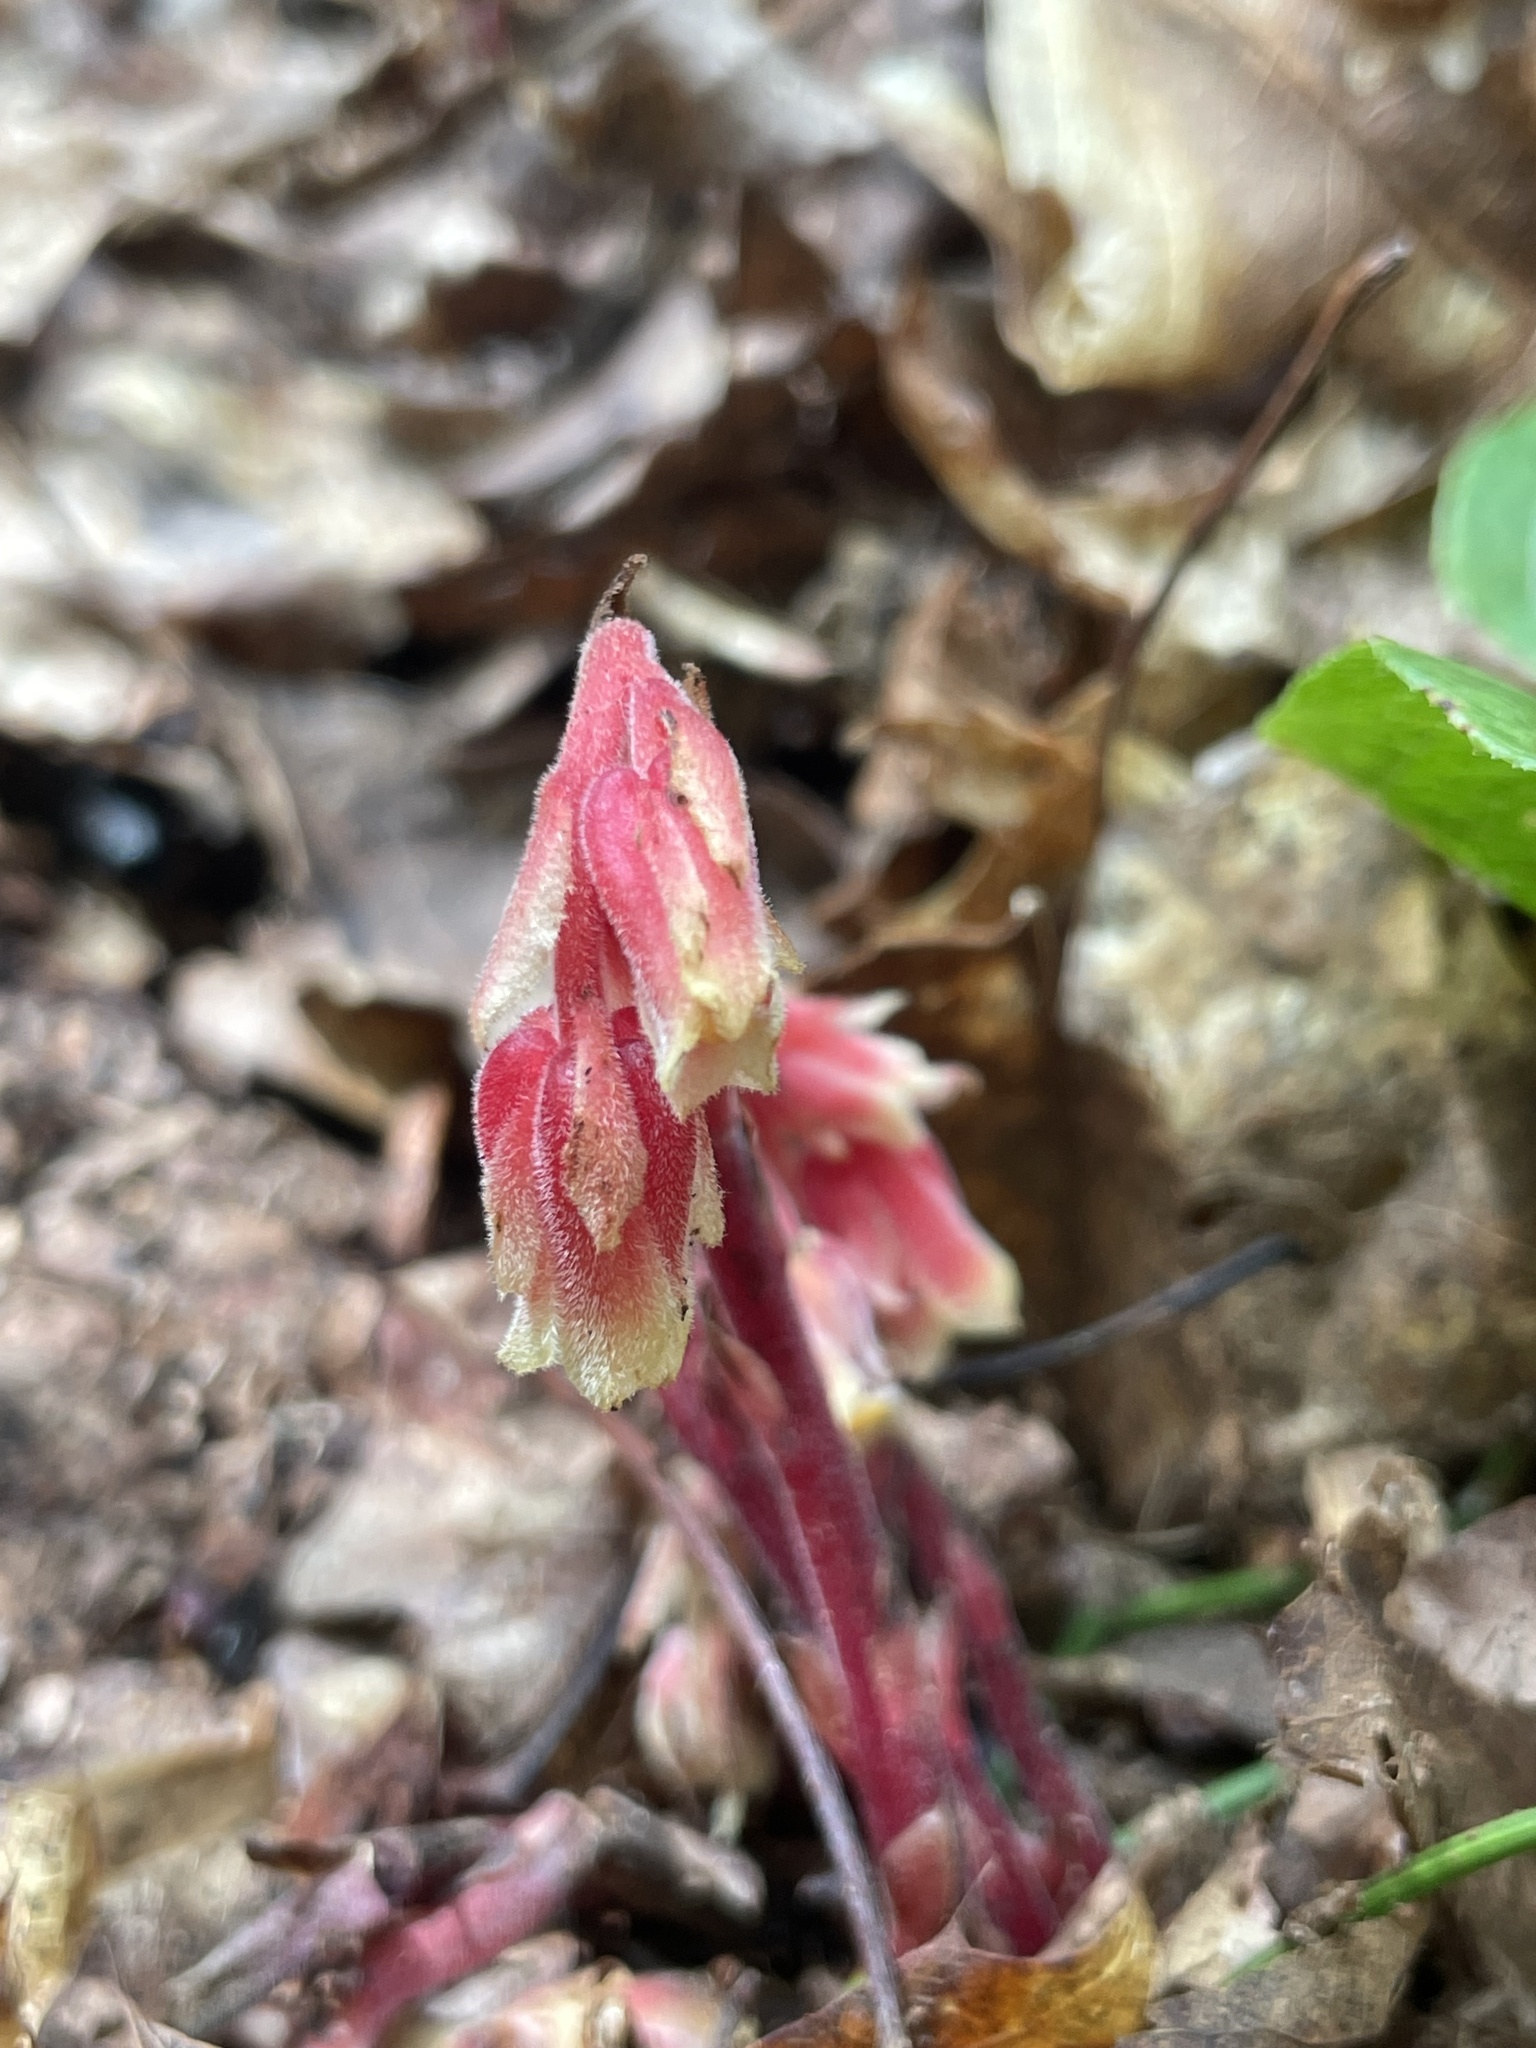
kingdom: Plantae
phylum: Tracheophyta
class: Magnoliopsida
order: Ericales
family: Ericaceae
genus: Hypopitys
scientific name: Hypopitys monotropa
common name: Yellow bird's-nest
